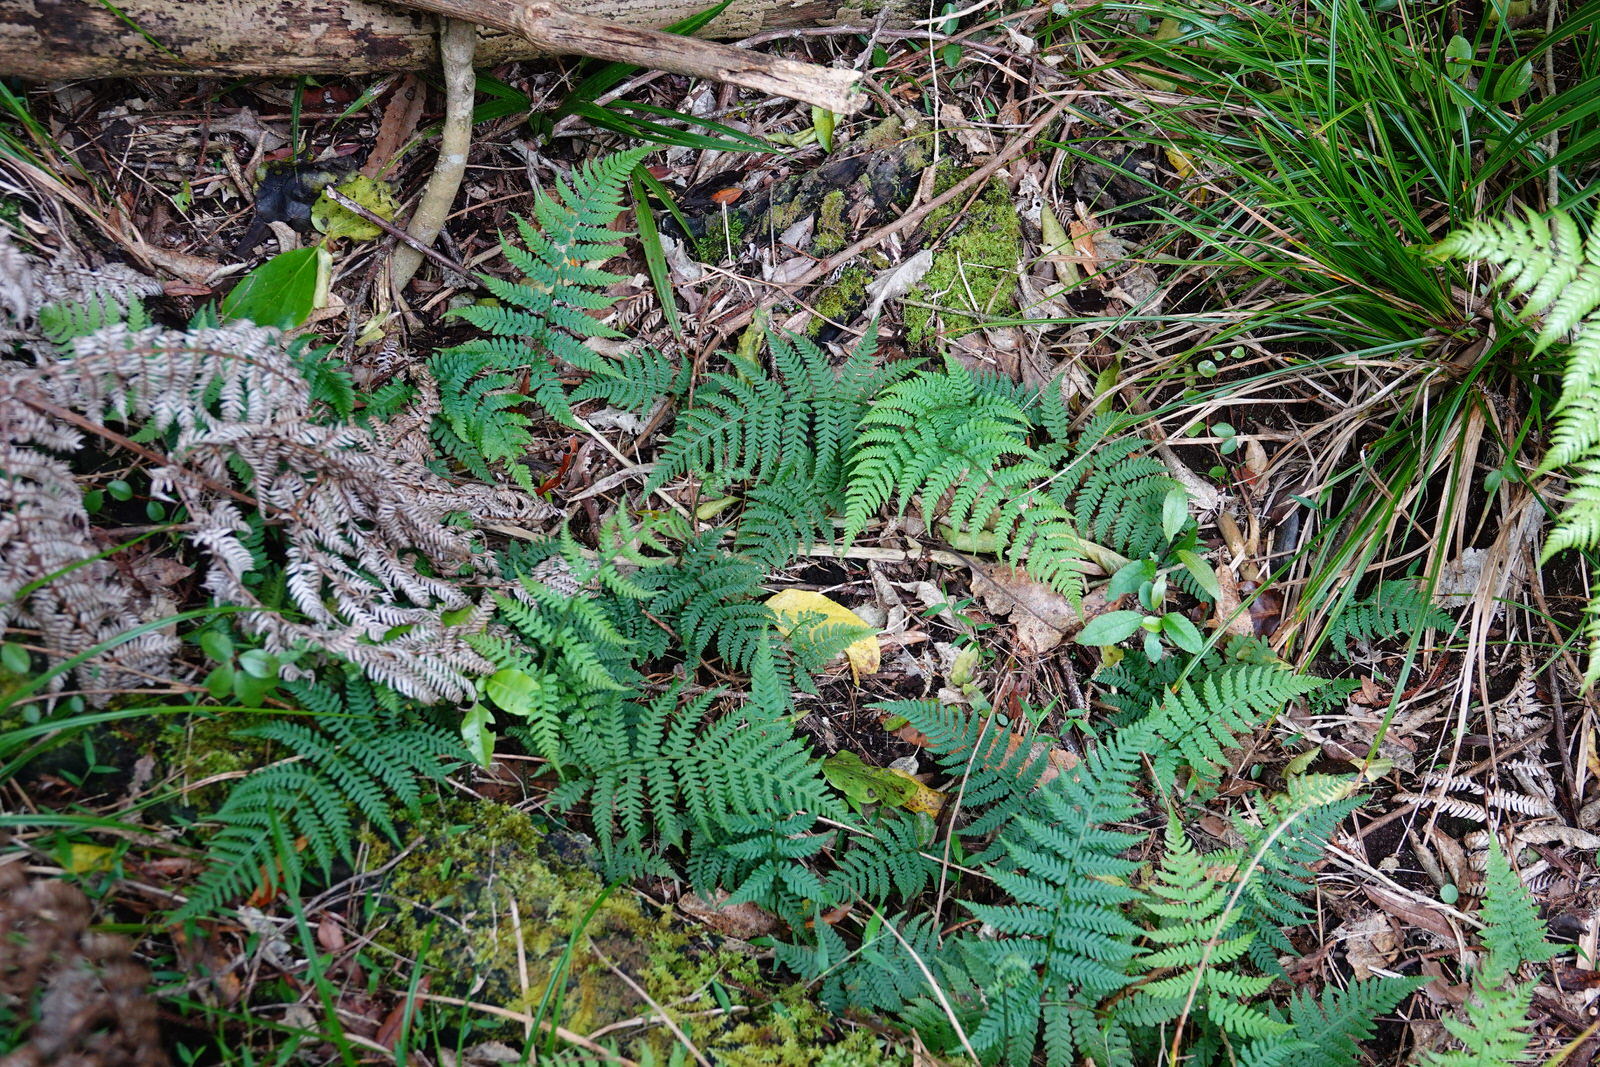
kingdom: Plantae
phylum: Tracheophyta
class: Polypodiopsida
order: Polypodiales
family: Athyriaceae
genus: Diplazium
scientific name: Diplazium congruum
